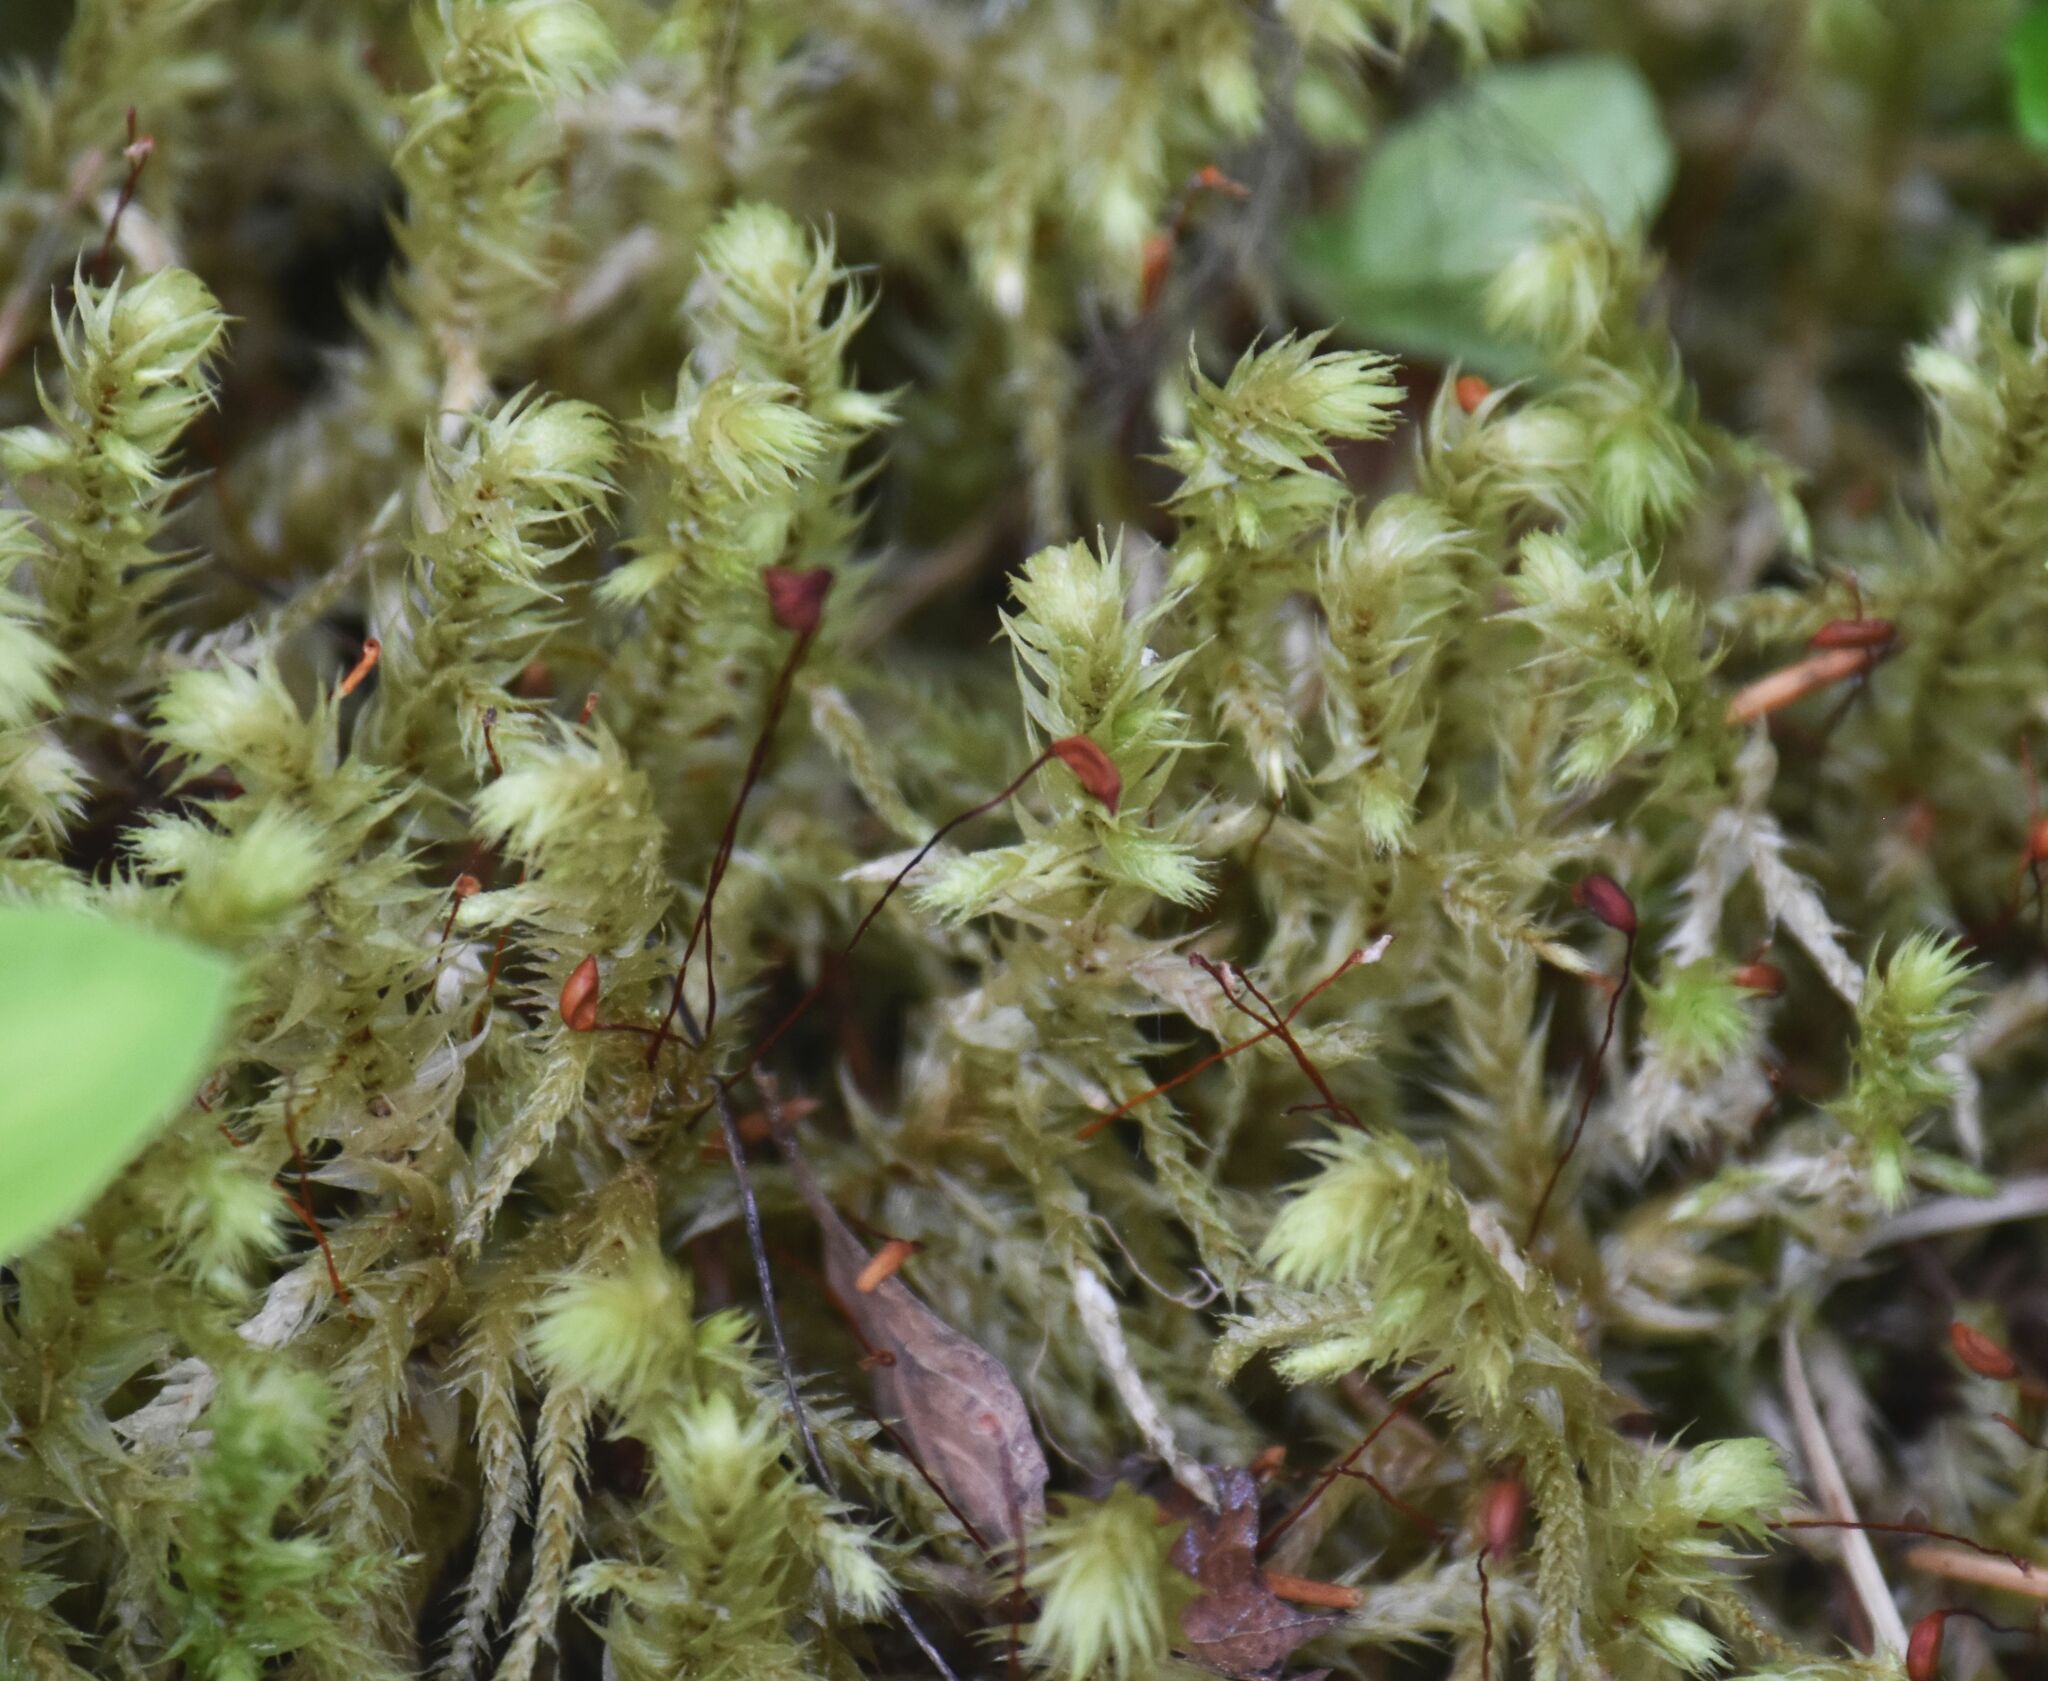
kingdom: Plantae
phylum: Bryophyta
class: Bryopsida
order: Hypnales
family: Hylocomiaceae
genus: Hylocomiadelphus
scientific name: Hylocomiadelphus triquetrus
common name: Rough goose neck moss
